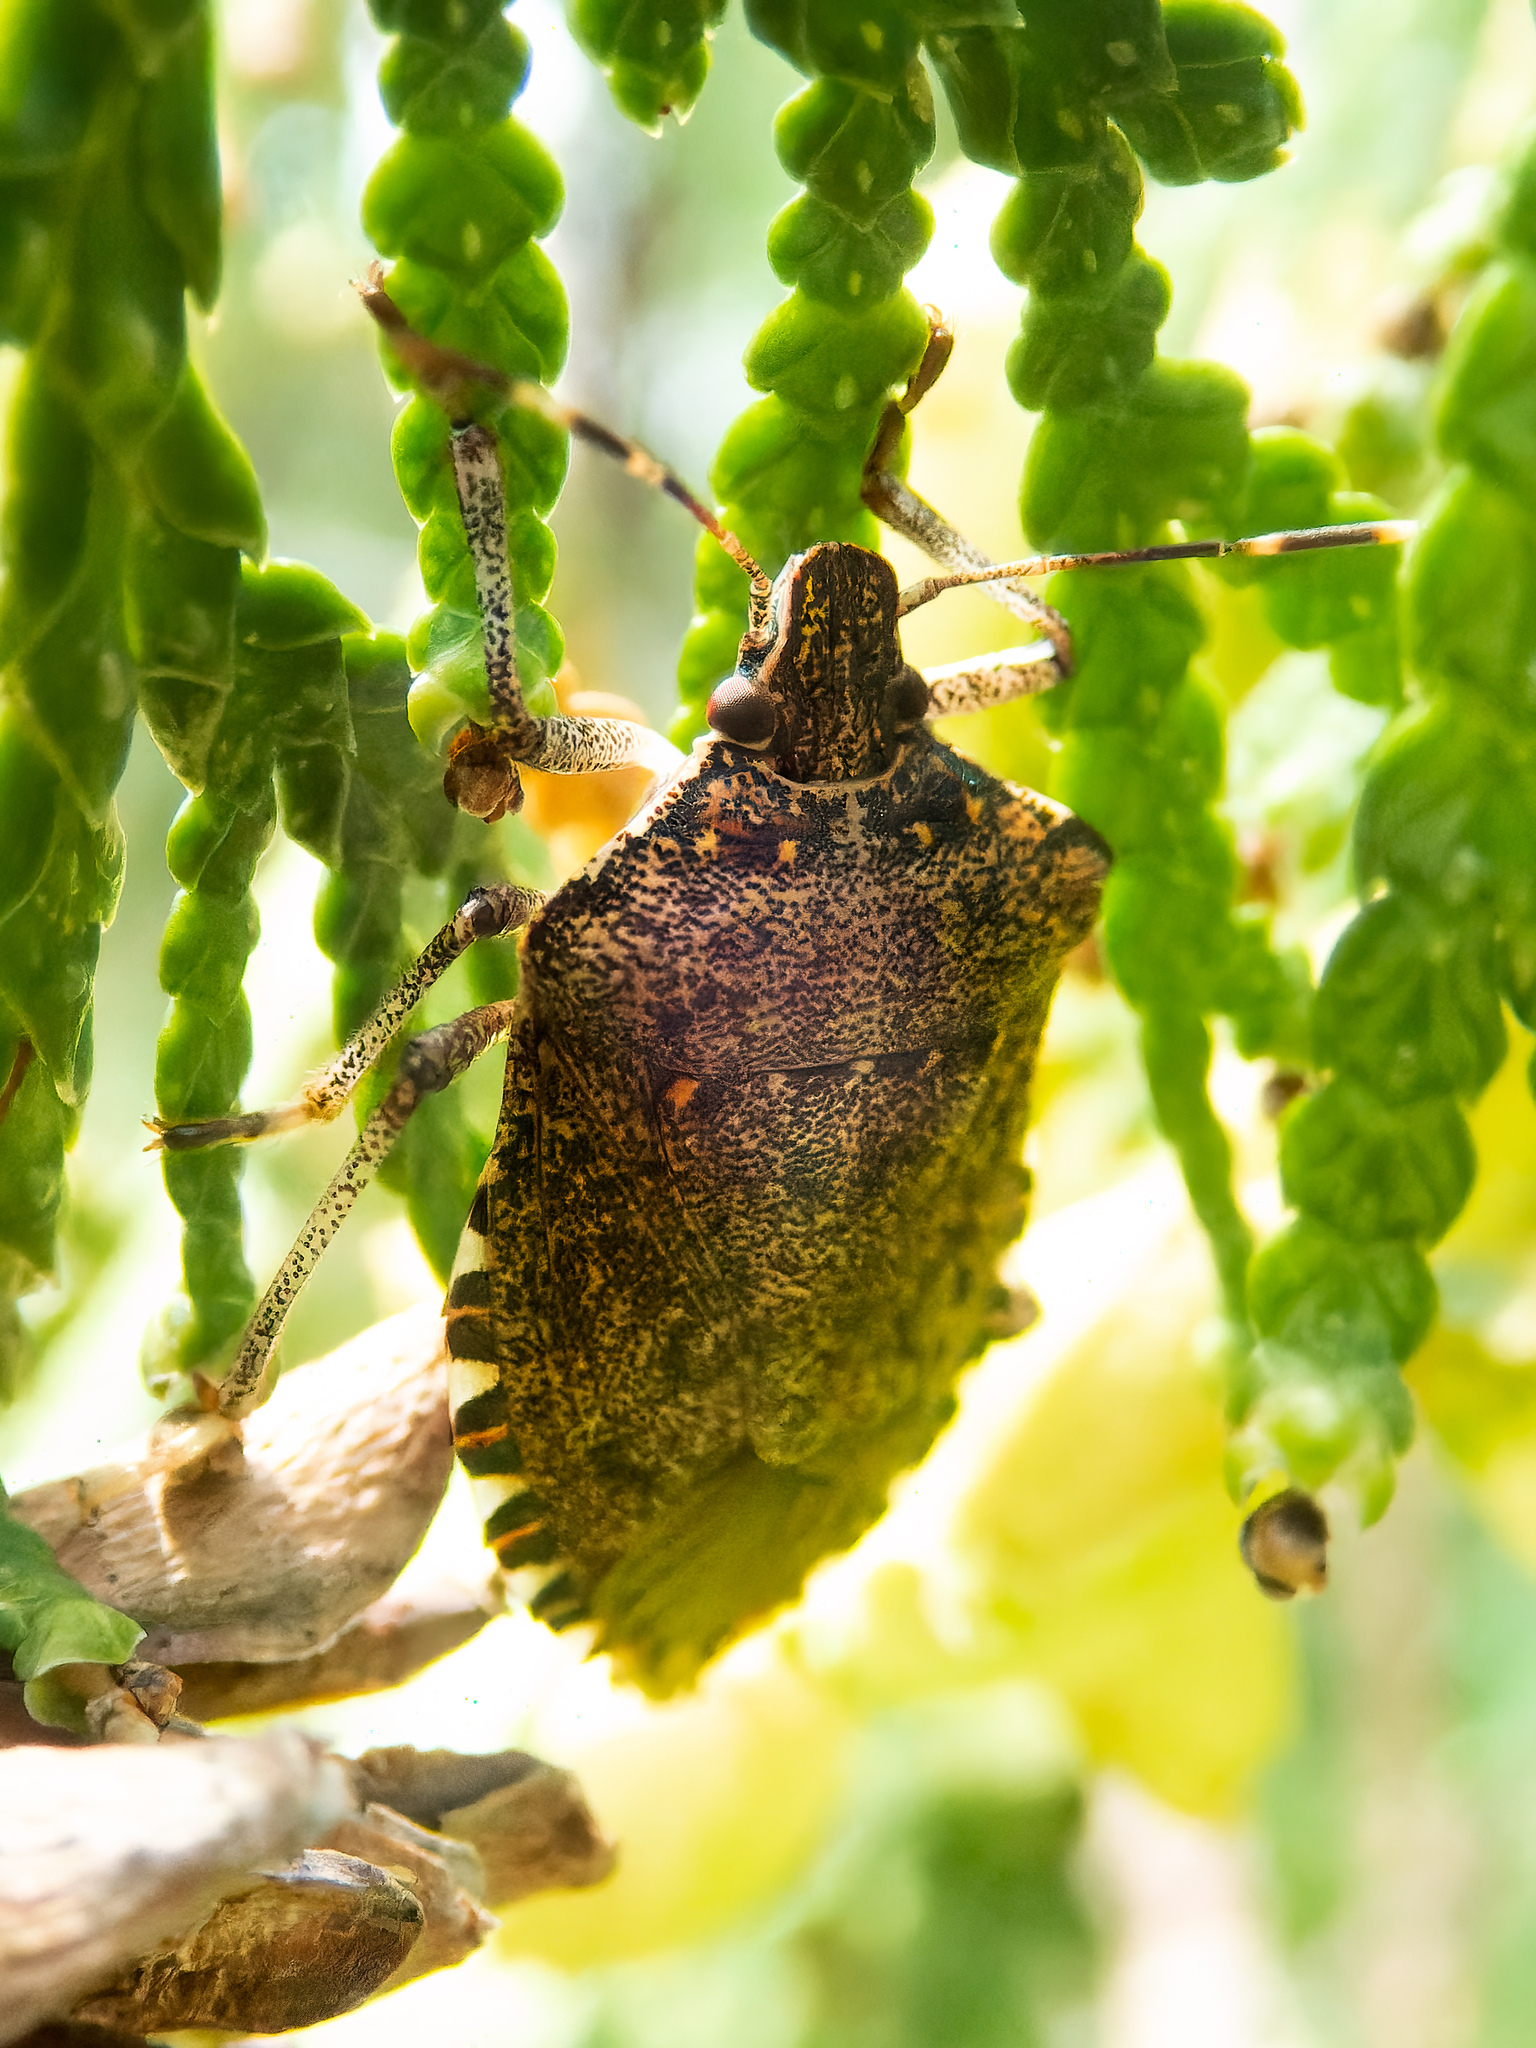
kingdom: Animalia
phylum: Arthropoda
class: Insecta
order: Hemiptera
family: Pentatomidae
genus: Halyomorpha
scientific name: Halyomorpha halys
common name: Brown marmorated stink bug
